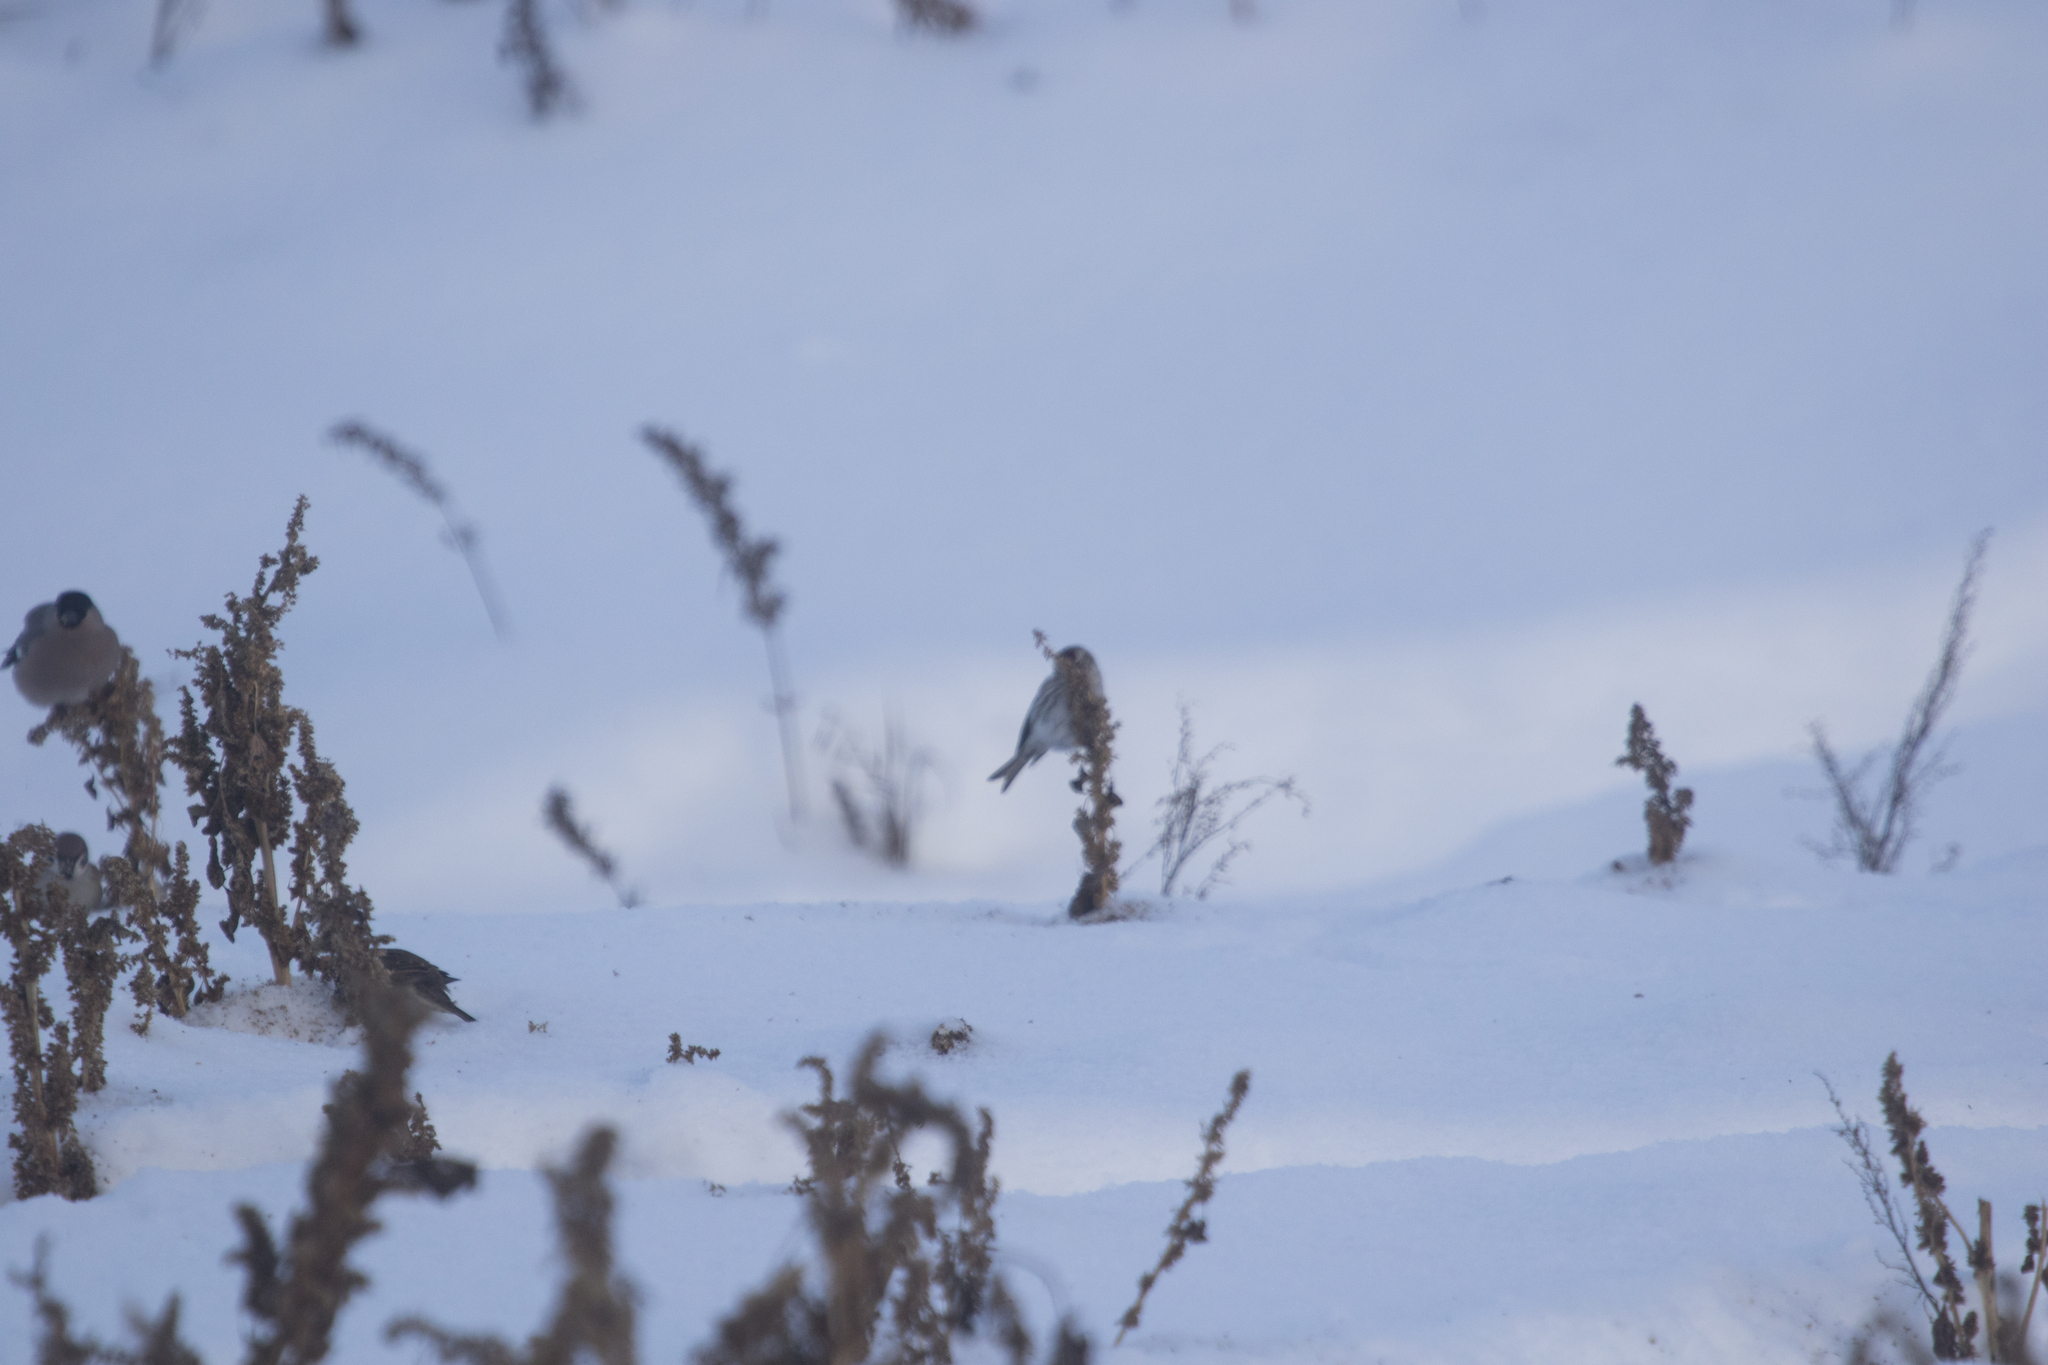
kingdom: Animalia
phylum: Chordata
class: Aves
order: Passeriformes
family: Fringillidae
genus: Acanthis
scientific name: Acanthis flammea
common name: Common redpoll
